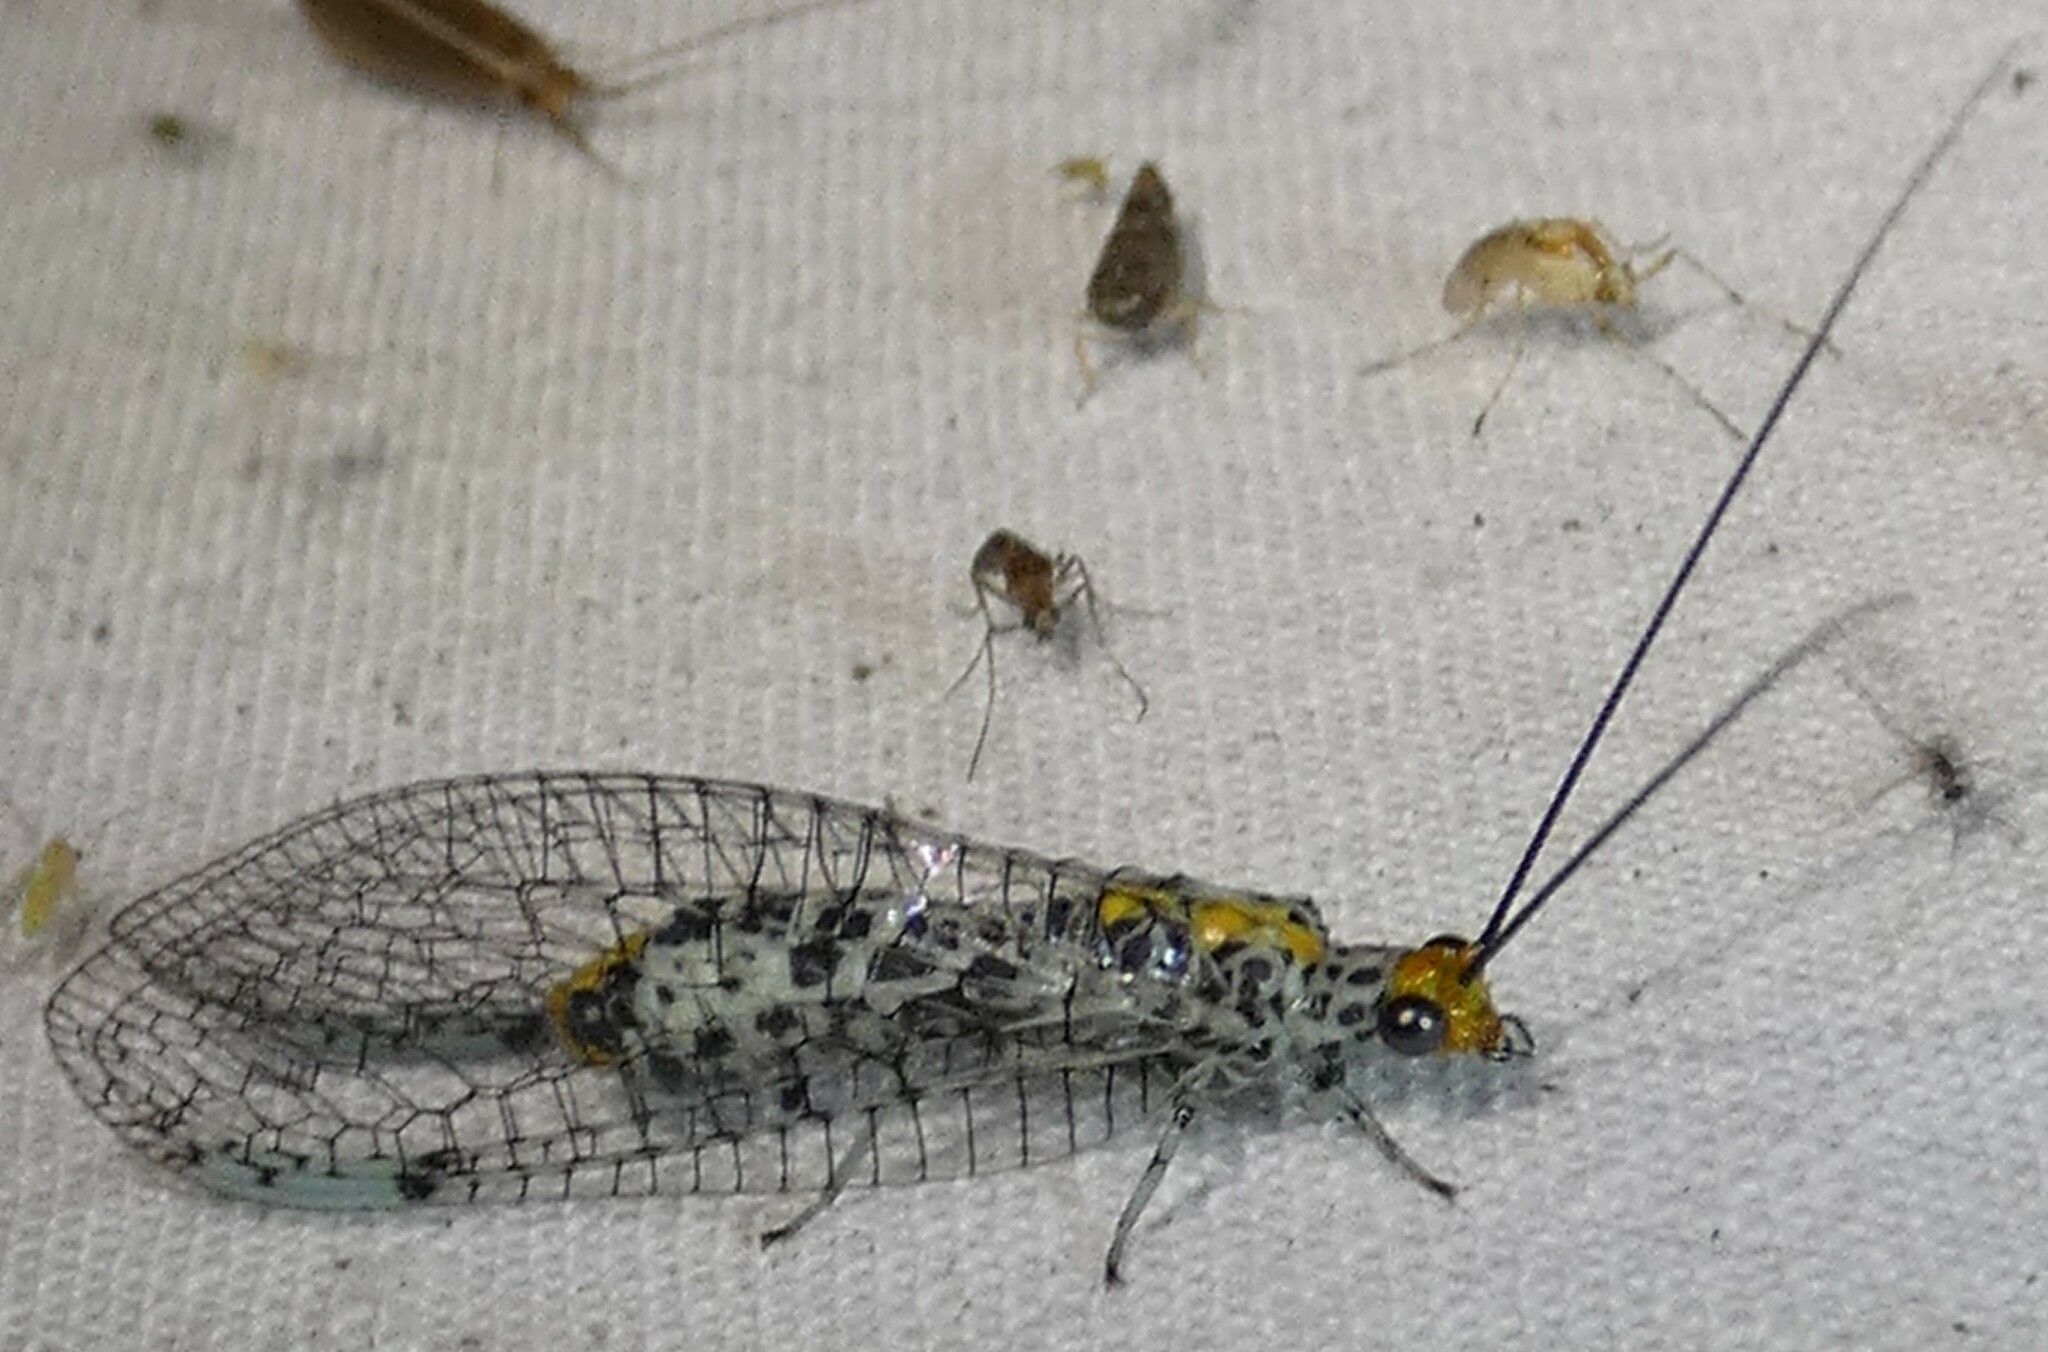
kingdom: Animalia
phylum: Arthropoda
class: Insecta
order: Neuroptera
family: Chrysopidae
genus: Abachrysa
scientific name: Abachrysa eureka
